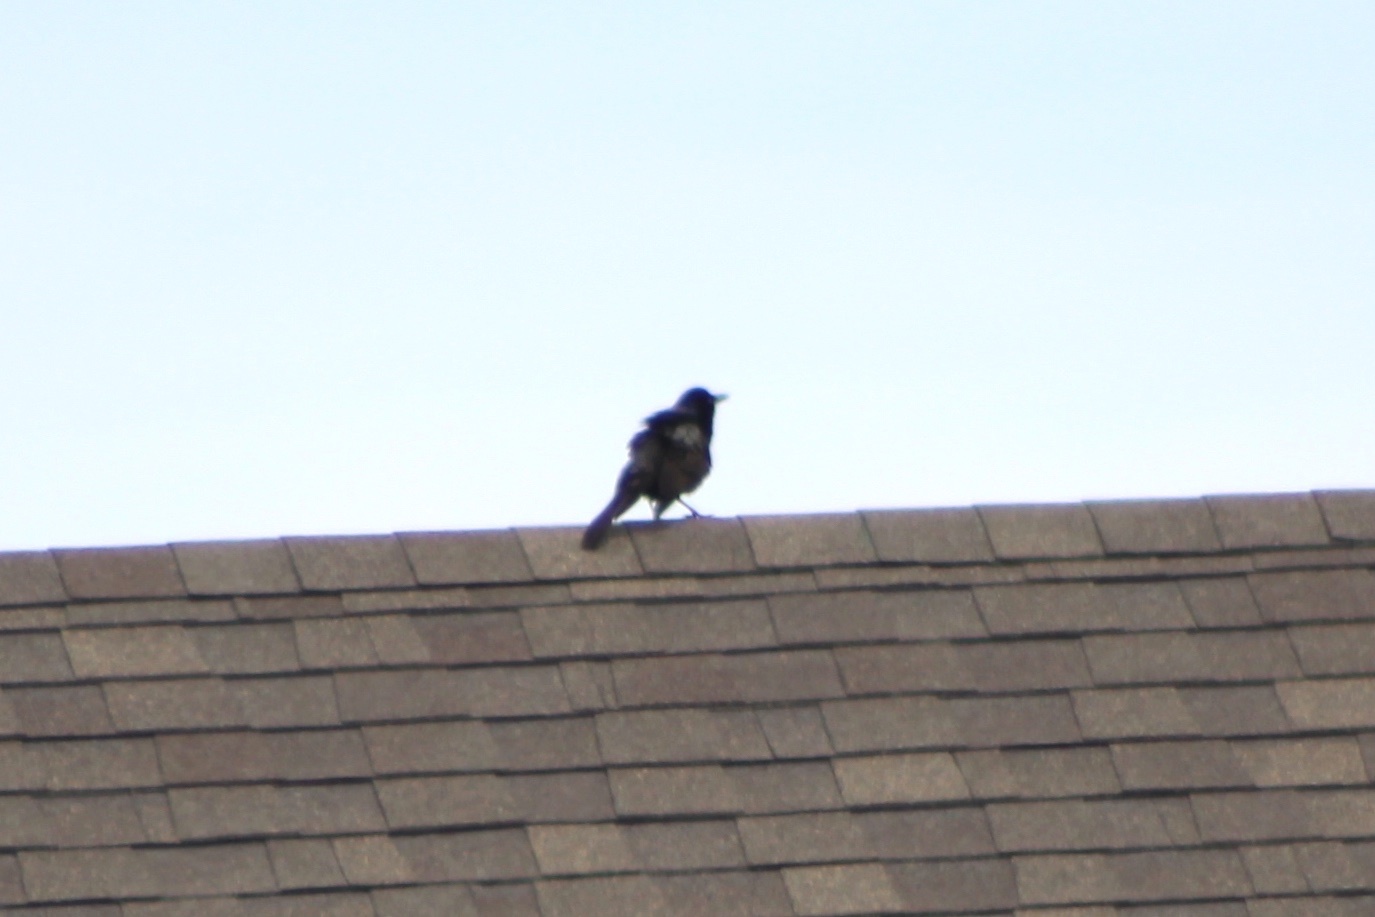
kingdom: Animalia
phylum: Chordata
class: Aves
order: Passeriformes
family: Icteridae
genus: Quiscalus
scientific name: Quiscalus quiscula
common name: Common grackle
